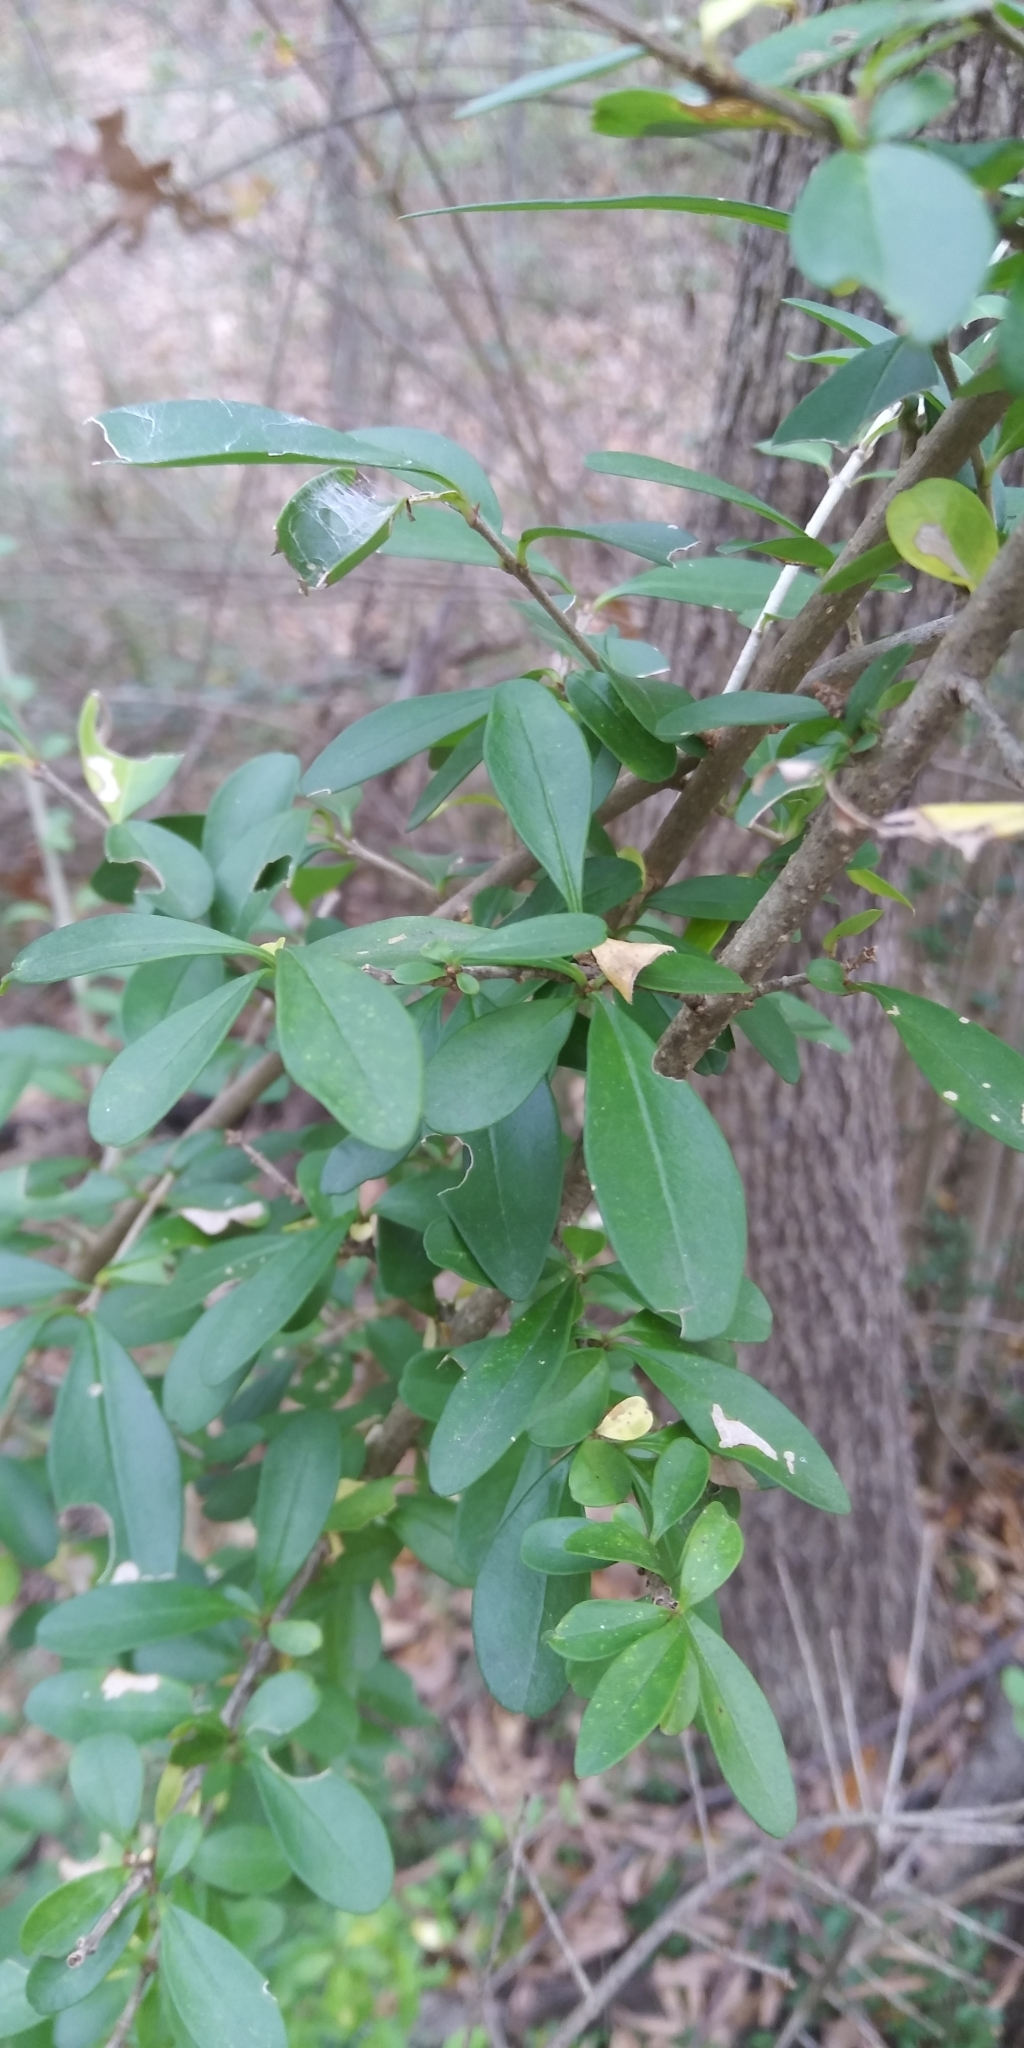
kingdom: Plantae
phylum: Tracheophyta
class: Magnoliopsida
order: Lamiales
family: Oleaceae
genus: Ligustrum
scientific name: Ligustrum quihoui
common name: Waxyleaf privet
